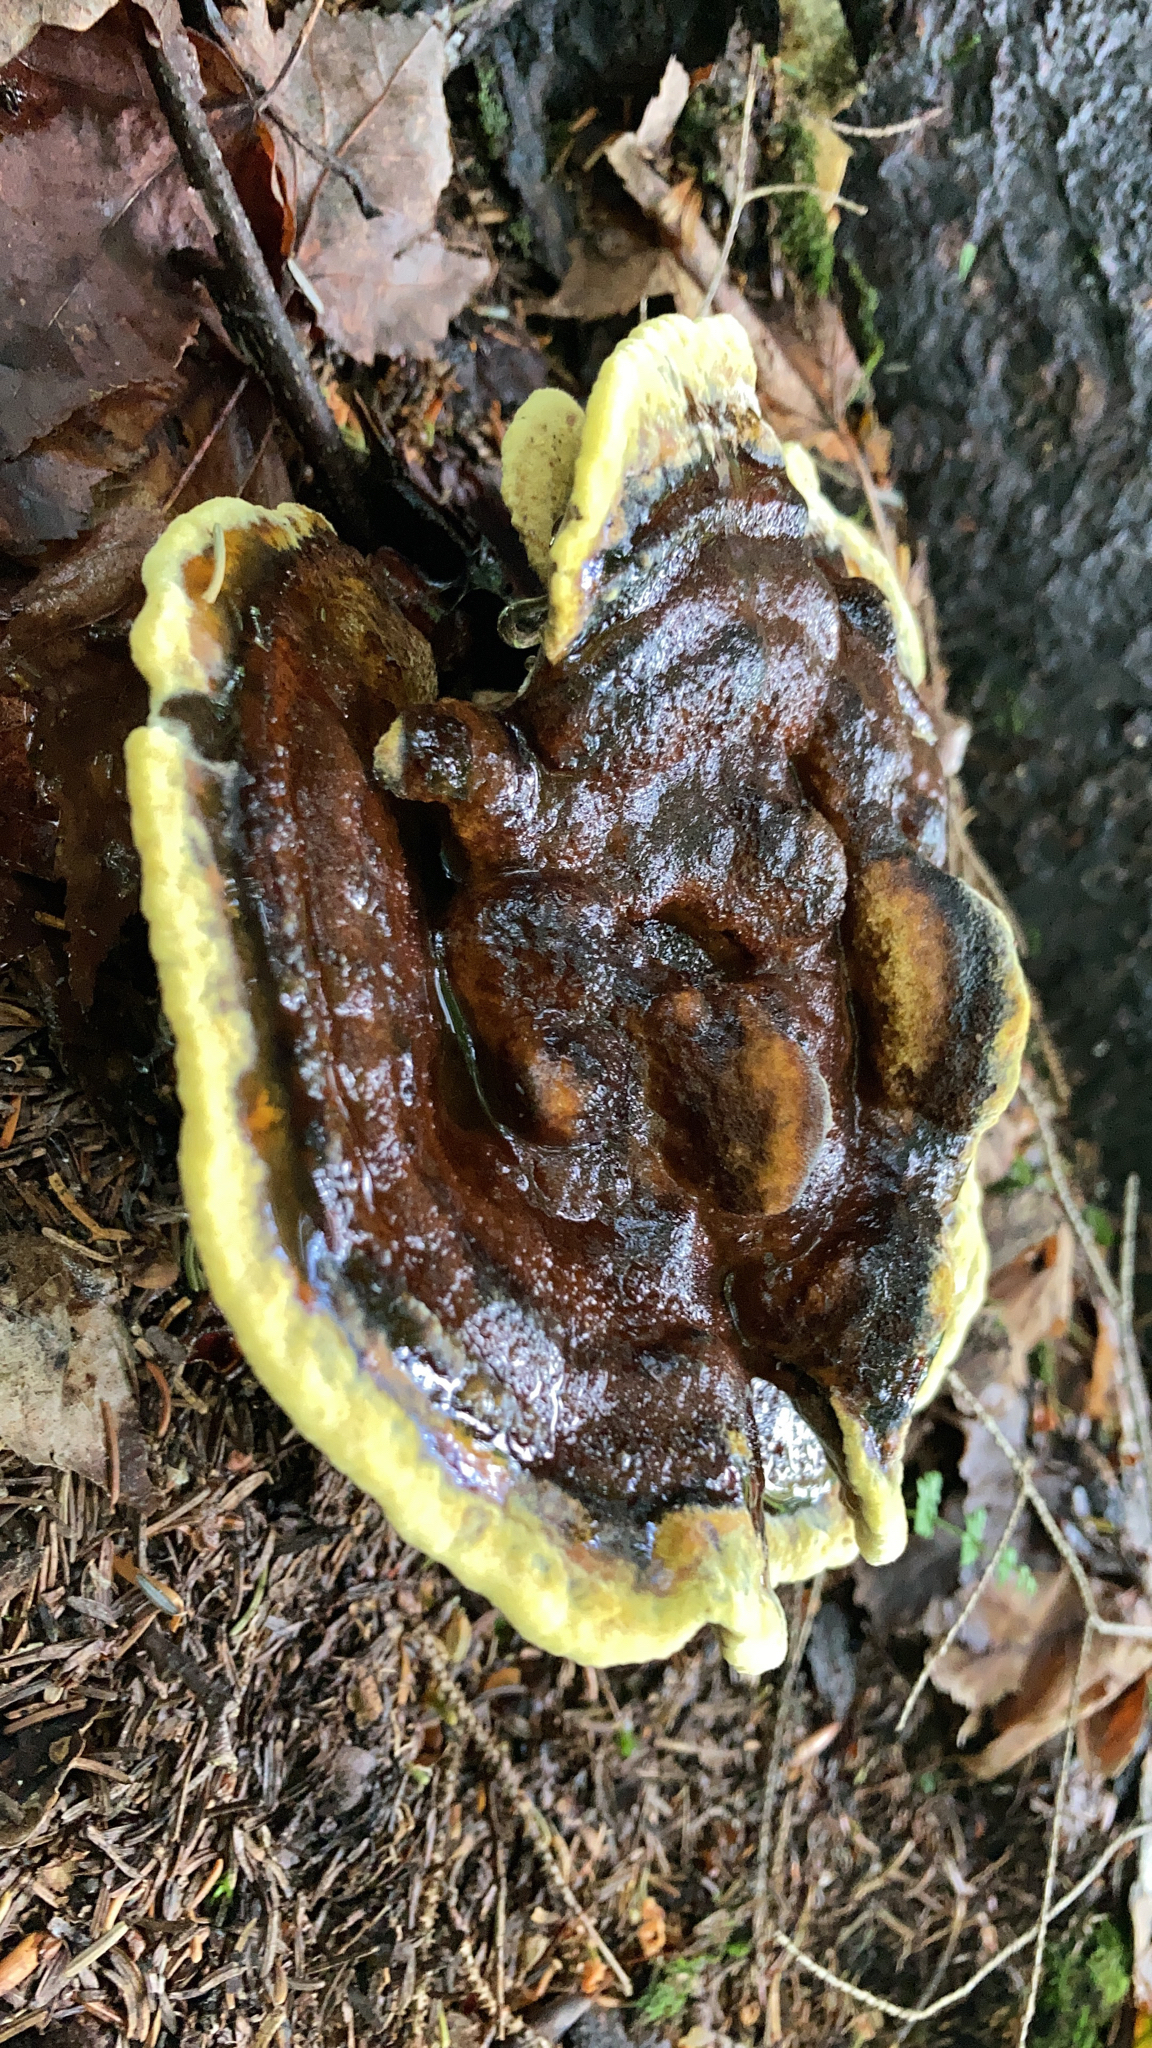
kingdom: Fungi
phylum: Basidiomycota
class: Agaricomycetes
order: Polyporales
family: Laetiporaceae
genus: Phaeolus
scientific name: Phaeolus schweinitzii
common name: Dyer's mazegill
